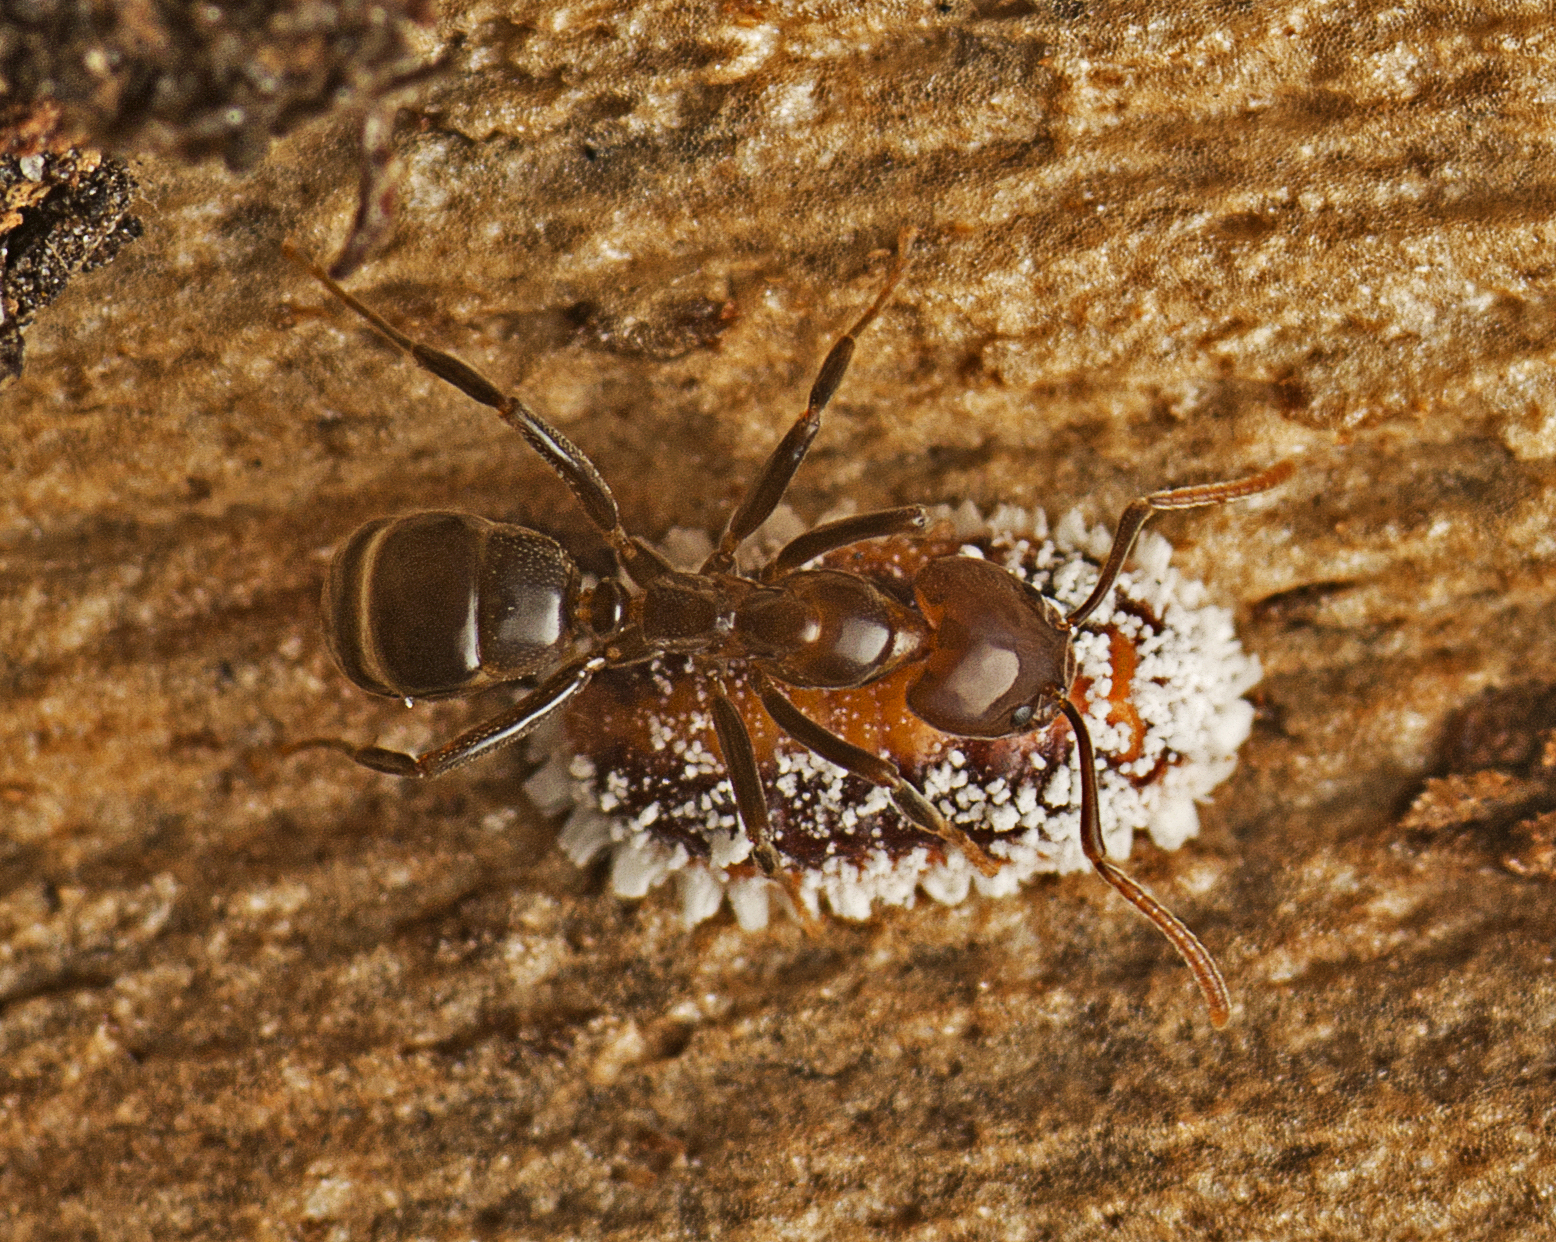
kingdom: Animalia
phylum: Arthropoda
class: Insecta
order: Hymenoptera
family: Formicidae
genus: Papyrius
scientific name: Papyrius nitidus
